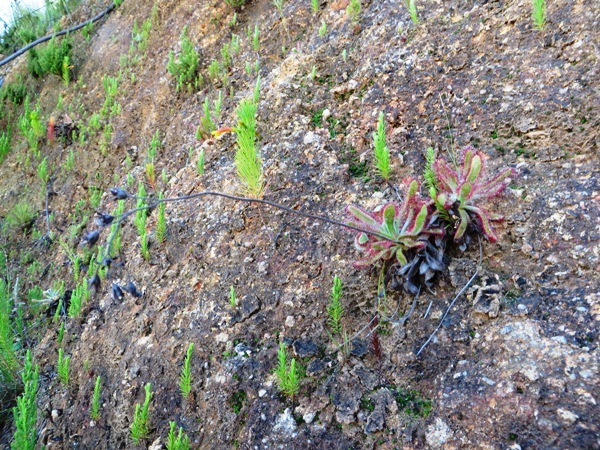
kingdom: Plantae
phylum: Tracheophyta
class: Magnoliopsida
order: Caryophyllales
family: Droseraceae
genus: Drosera
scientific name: Drosera hilaris
